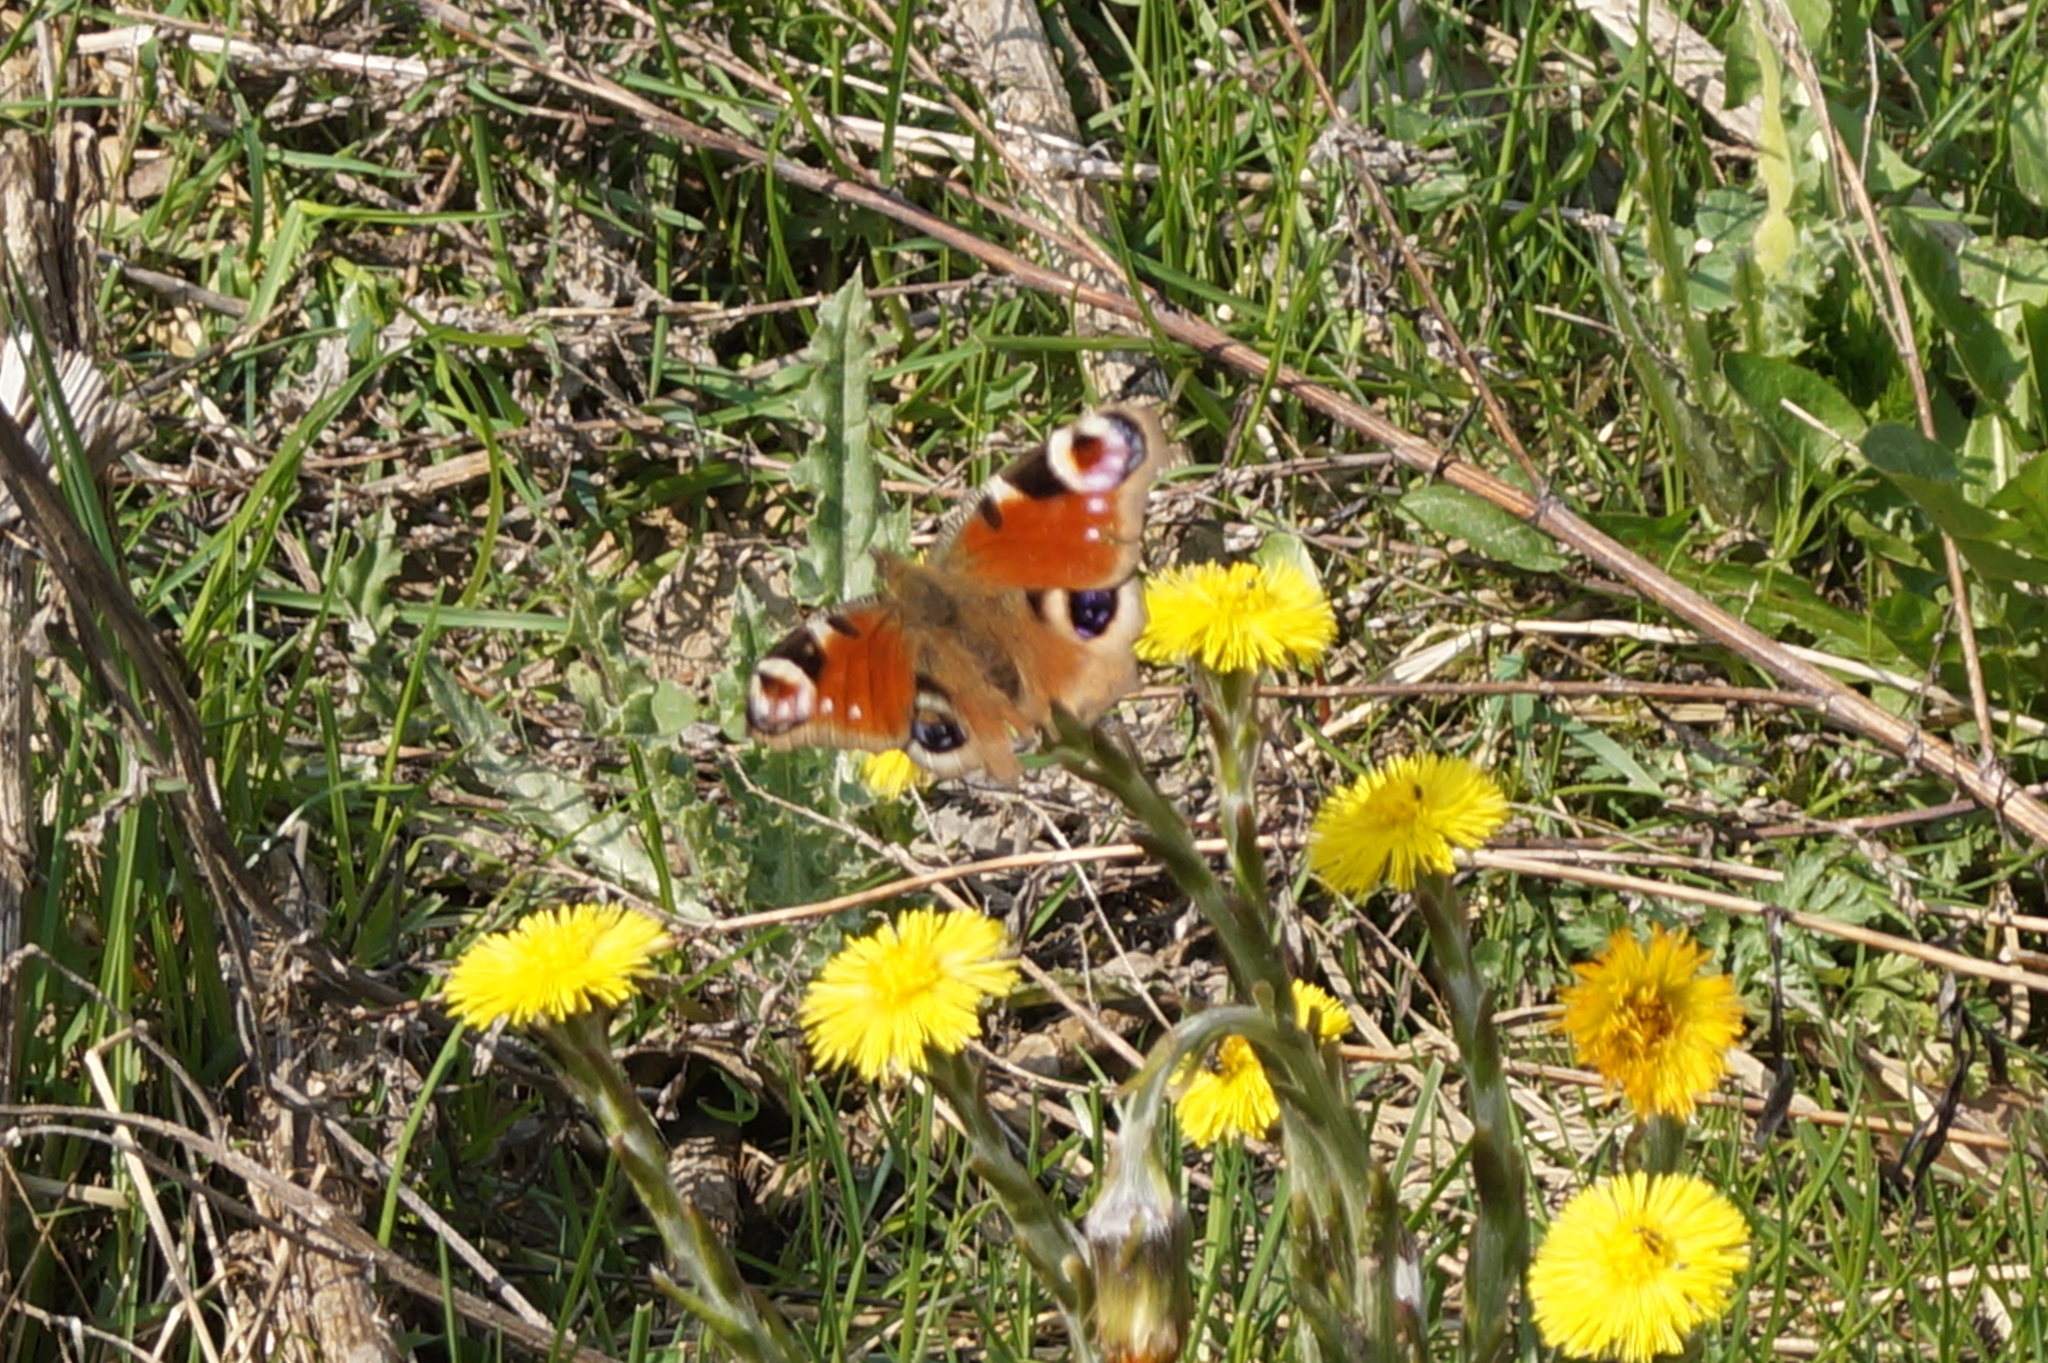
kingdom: Animalia
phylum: Arthropoda
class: Insecta
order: Lepidoptera
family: Nymphalidae
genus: Aglais
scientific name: Aglais io
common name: Peacock
